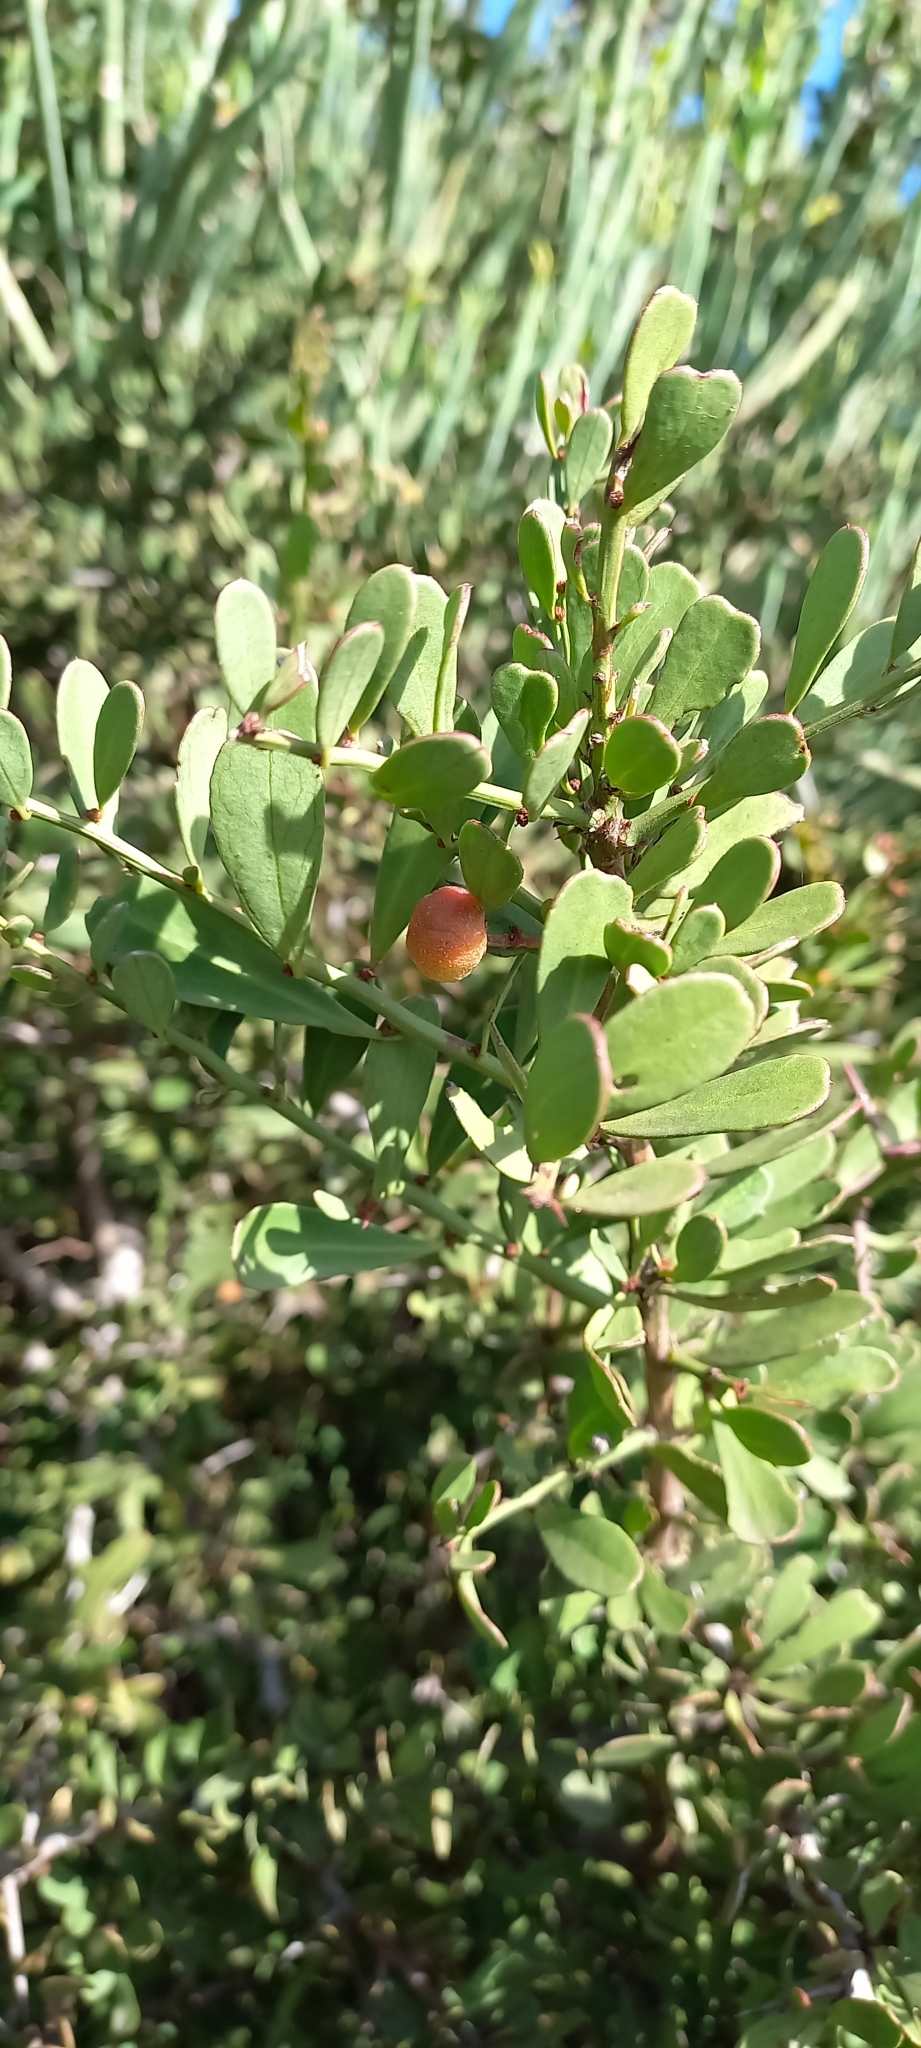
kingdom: Plantae
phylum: Tracheophyta
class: Magnoliopsida
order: Celastrales
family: Celastraceae
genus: Gymnosporia
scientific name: Gymnosporia buxifolia
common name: Common spike-thorn
